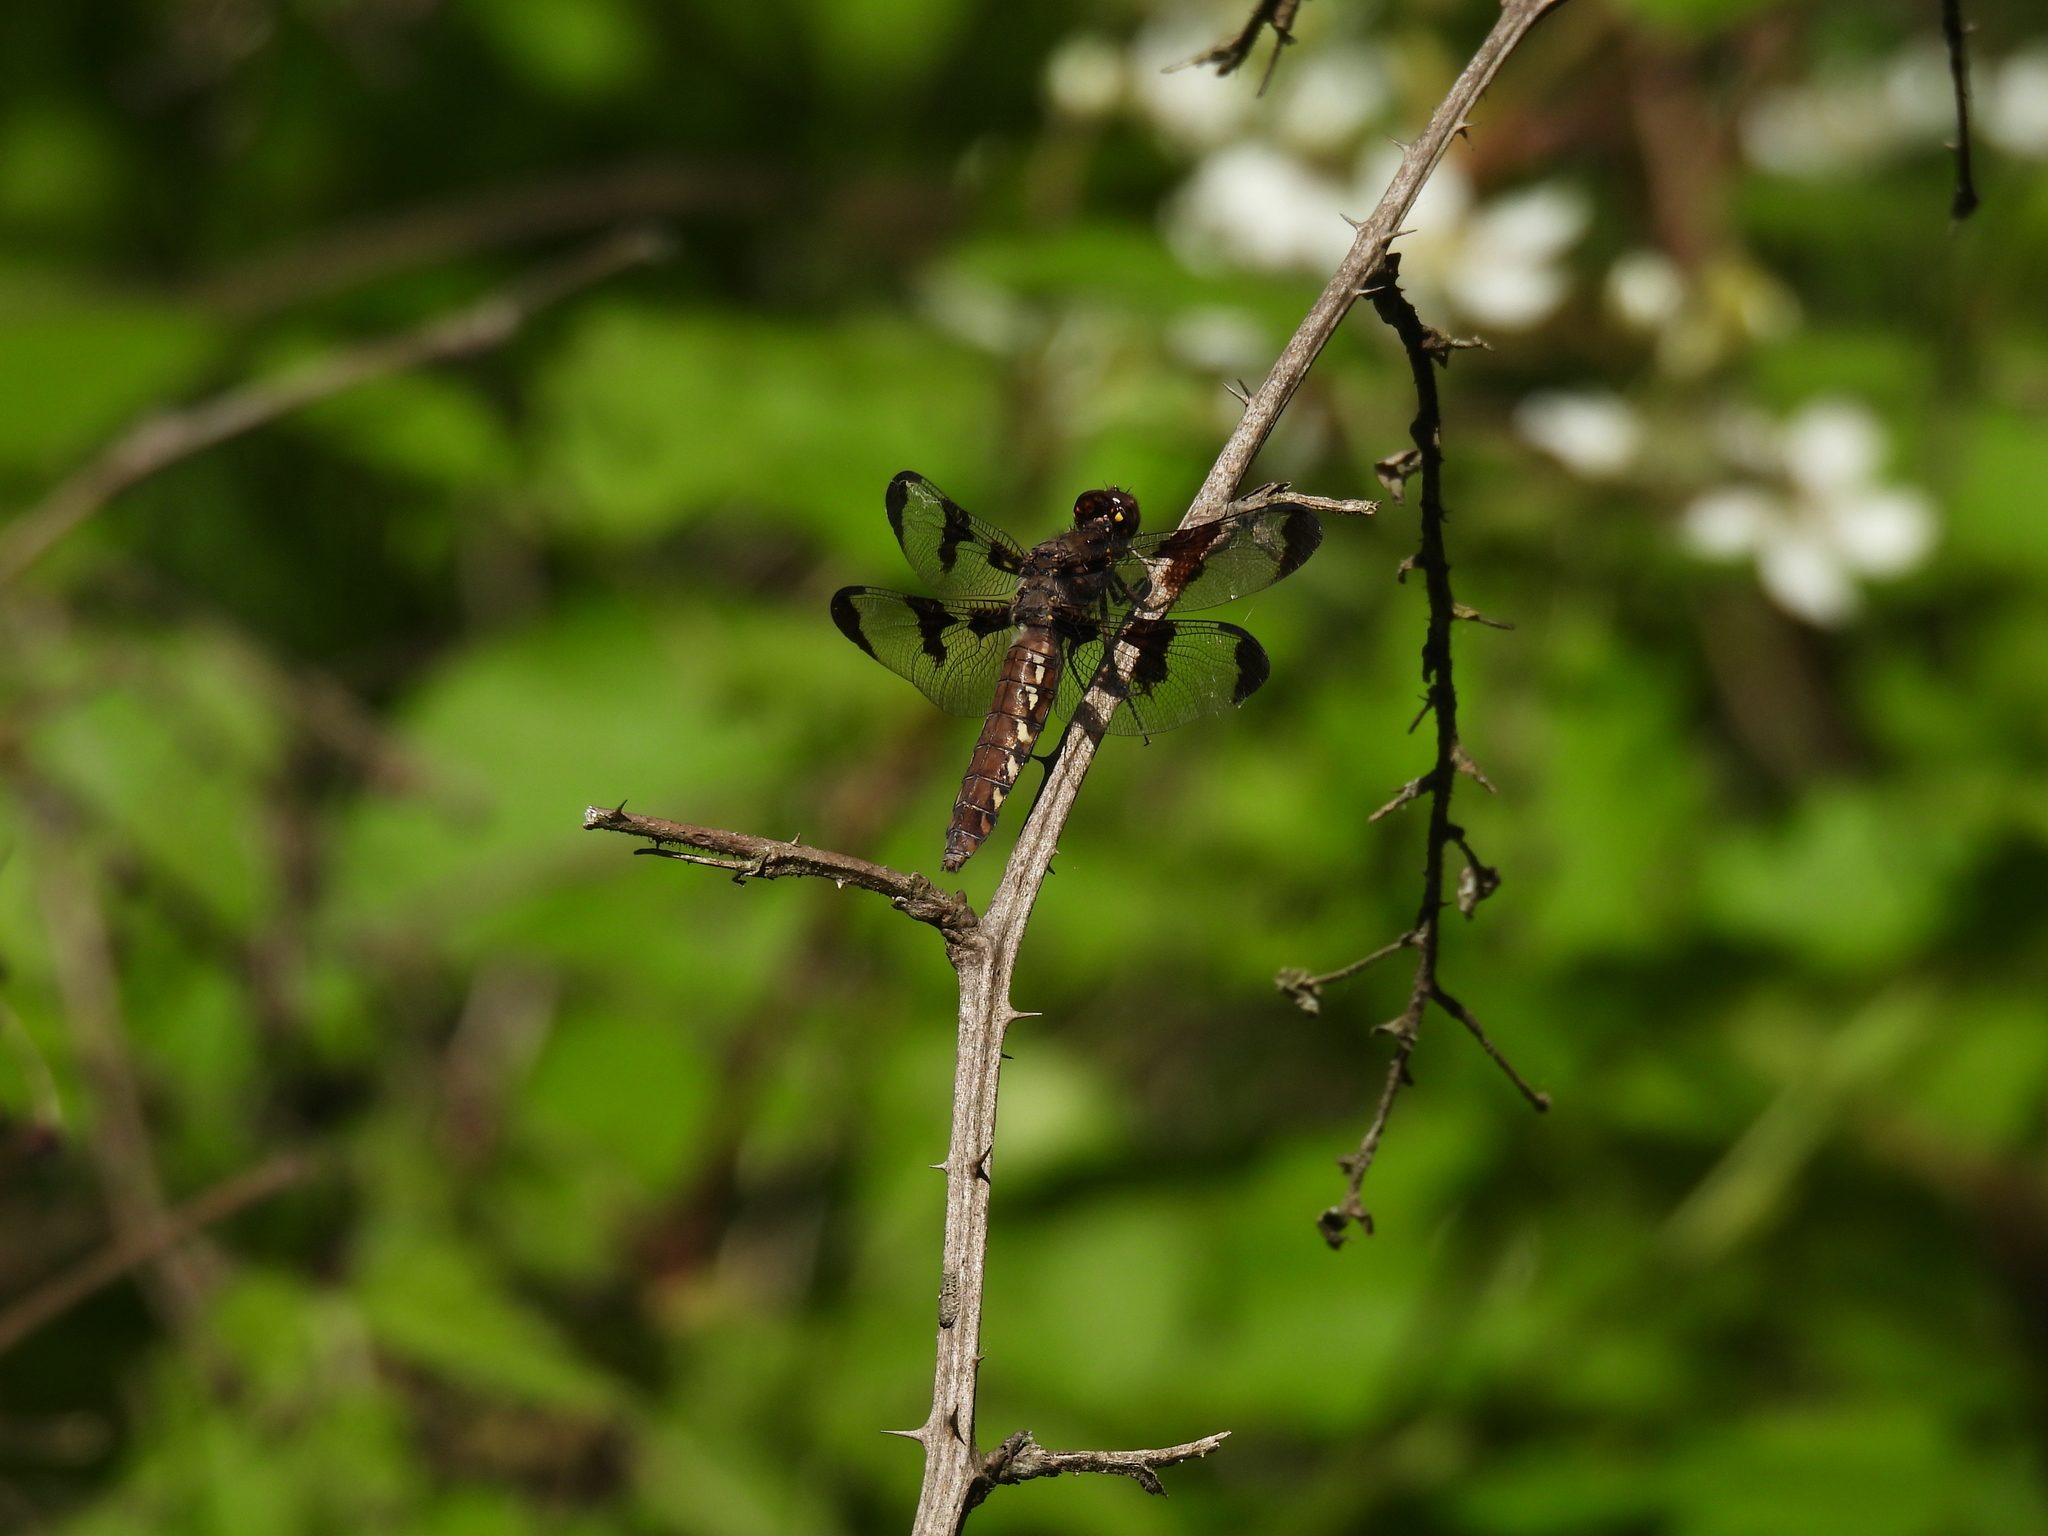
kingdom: Animalia
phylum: Arthropoda
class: Insecta
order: Odonata
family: Libellulidae
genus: Plathemis
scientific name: Plathemis lydia
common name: Common whitetail
